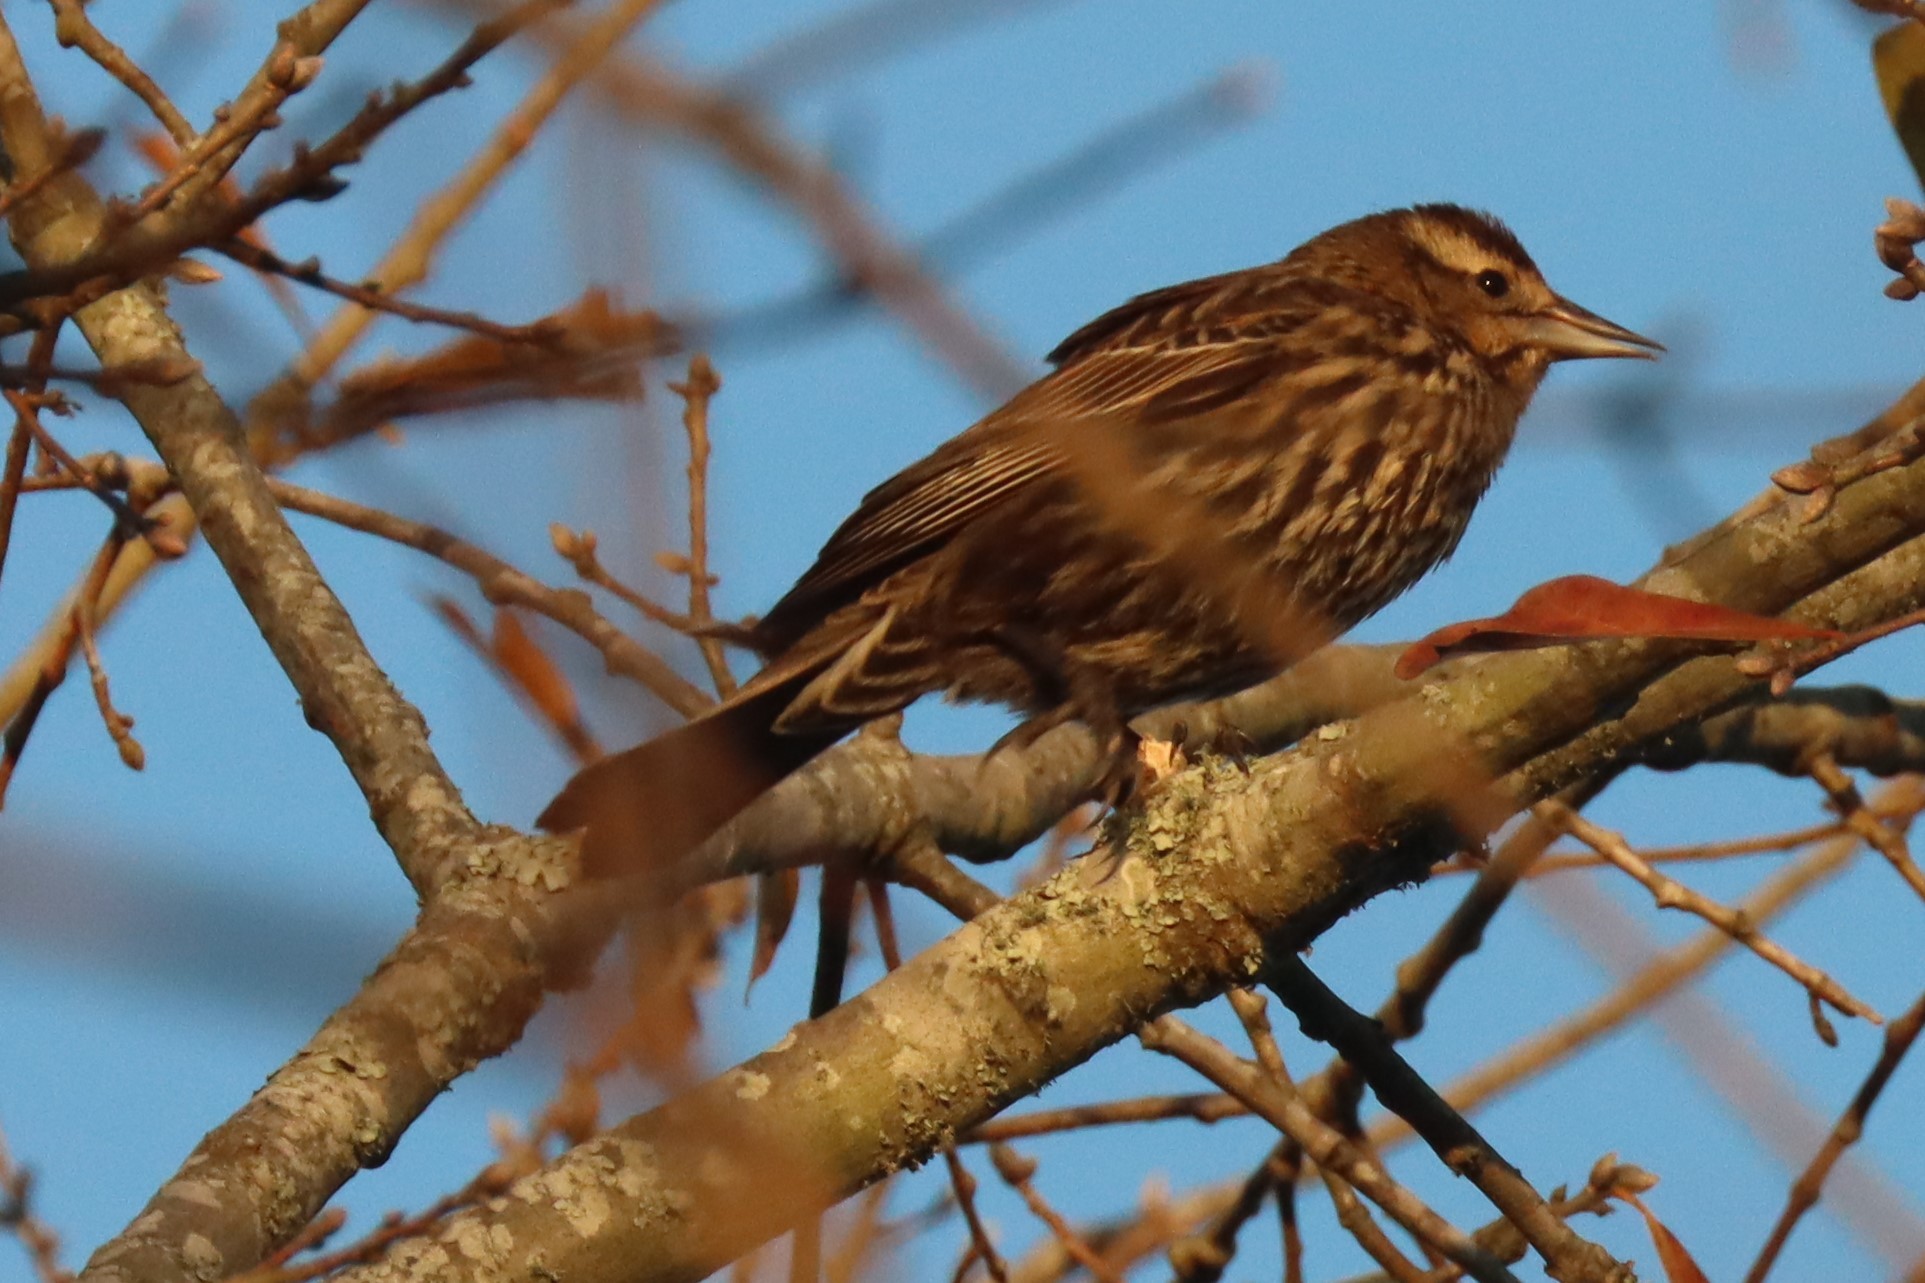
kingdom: Animalia
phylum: Chordata
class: Aves
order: Passeriformes
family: Icteridae
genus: Agelaius
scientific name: Agelaius phoeniceus
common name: Red-winged blackbird
